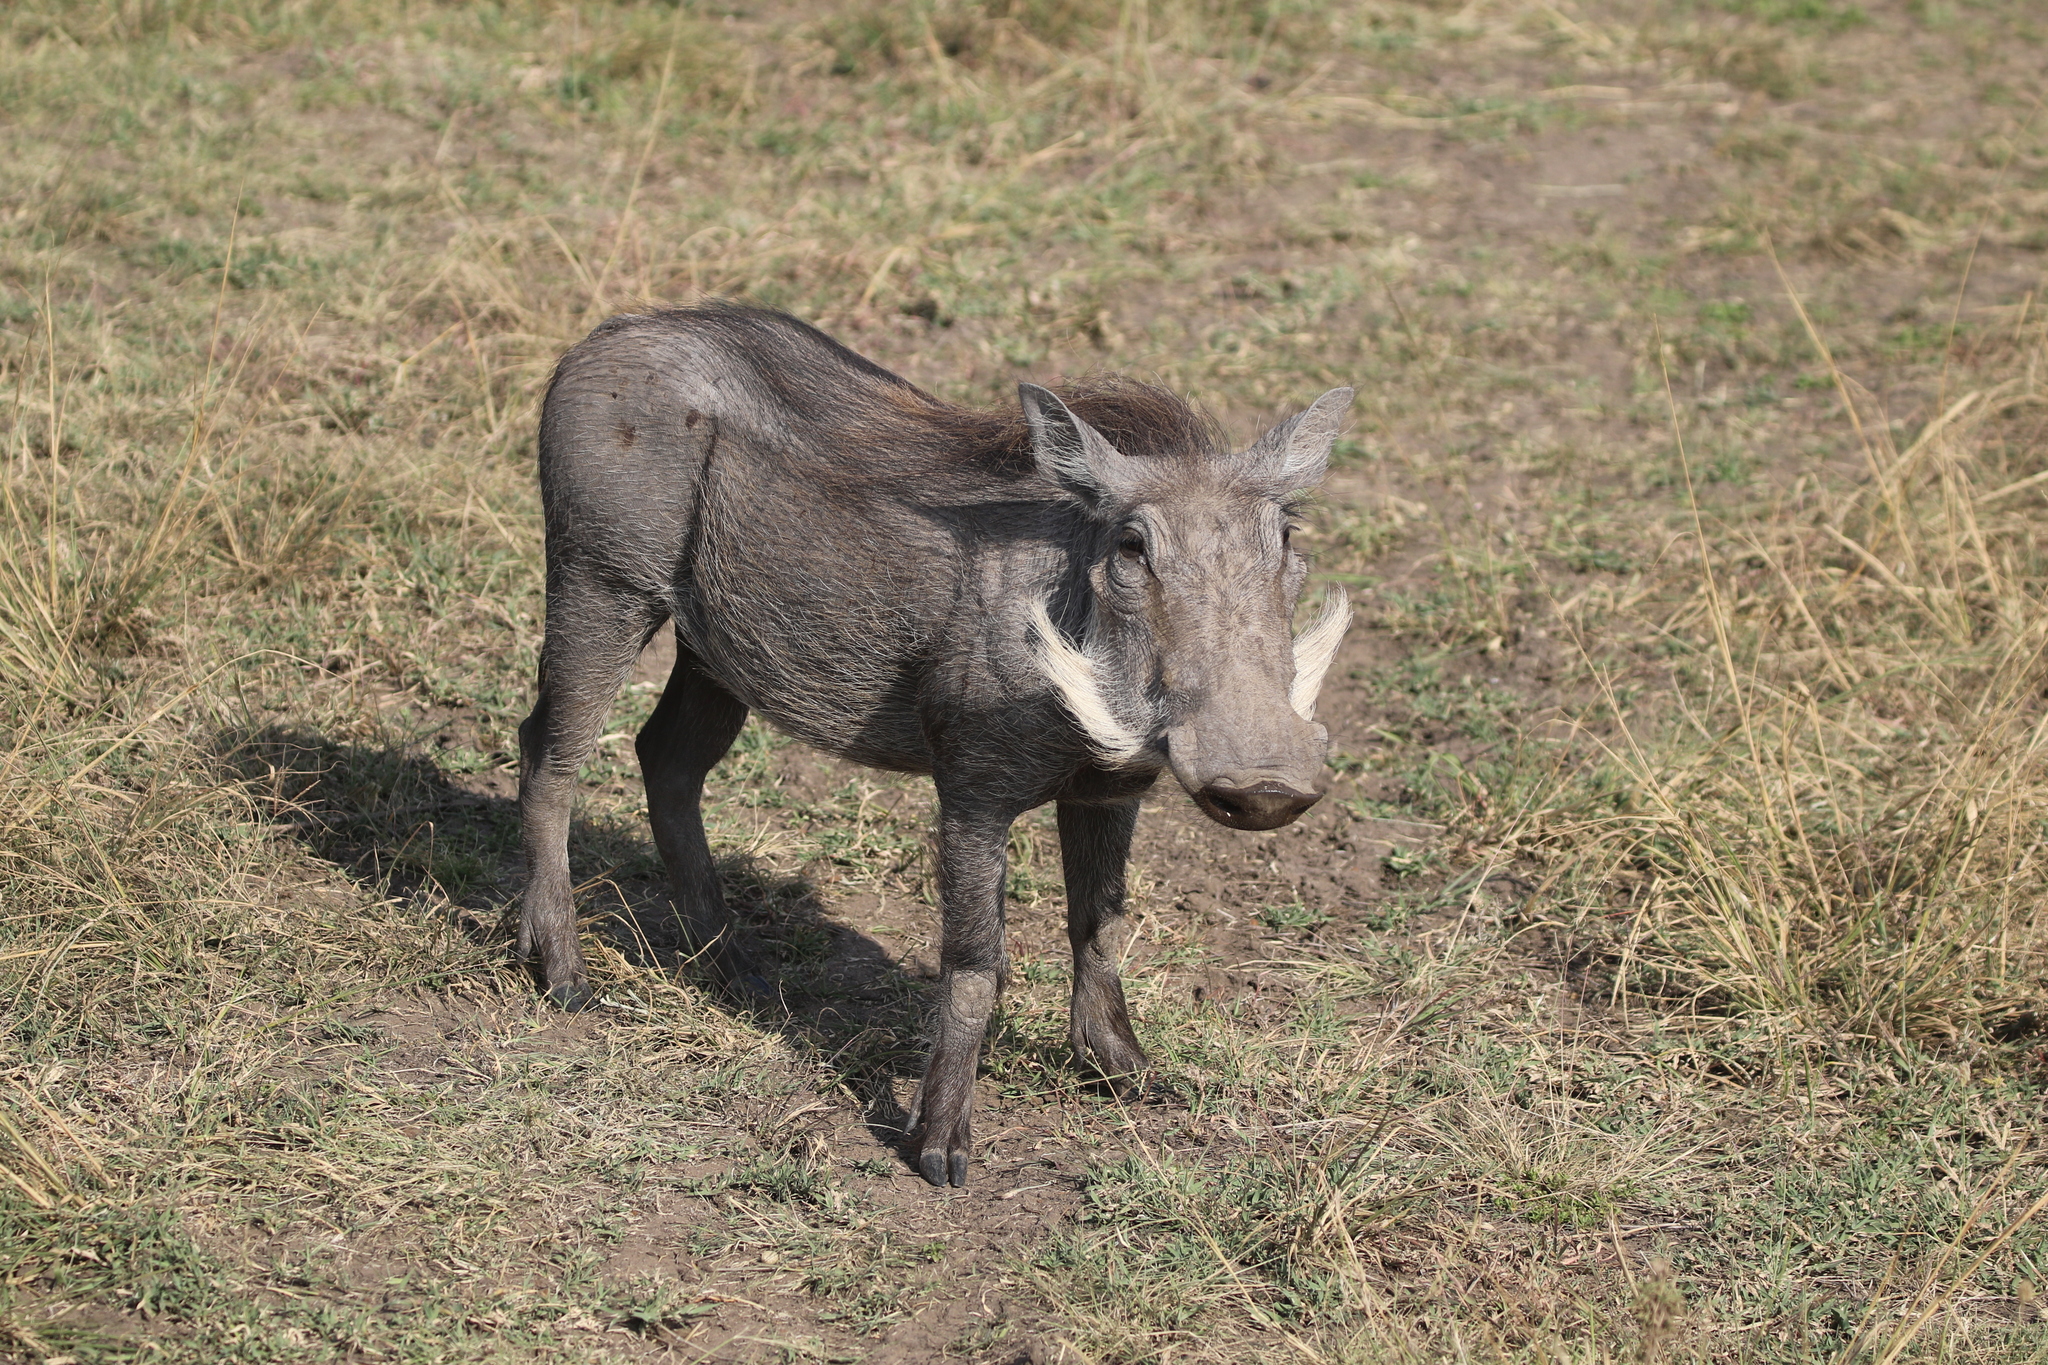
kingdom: Animalia
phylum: Chordata
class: Mammalia
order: Artiodactyla
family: Suidae
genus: Phacochoerus
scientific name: Phacochoerus africanus
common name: Common warthog
